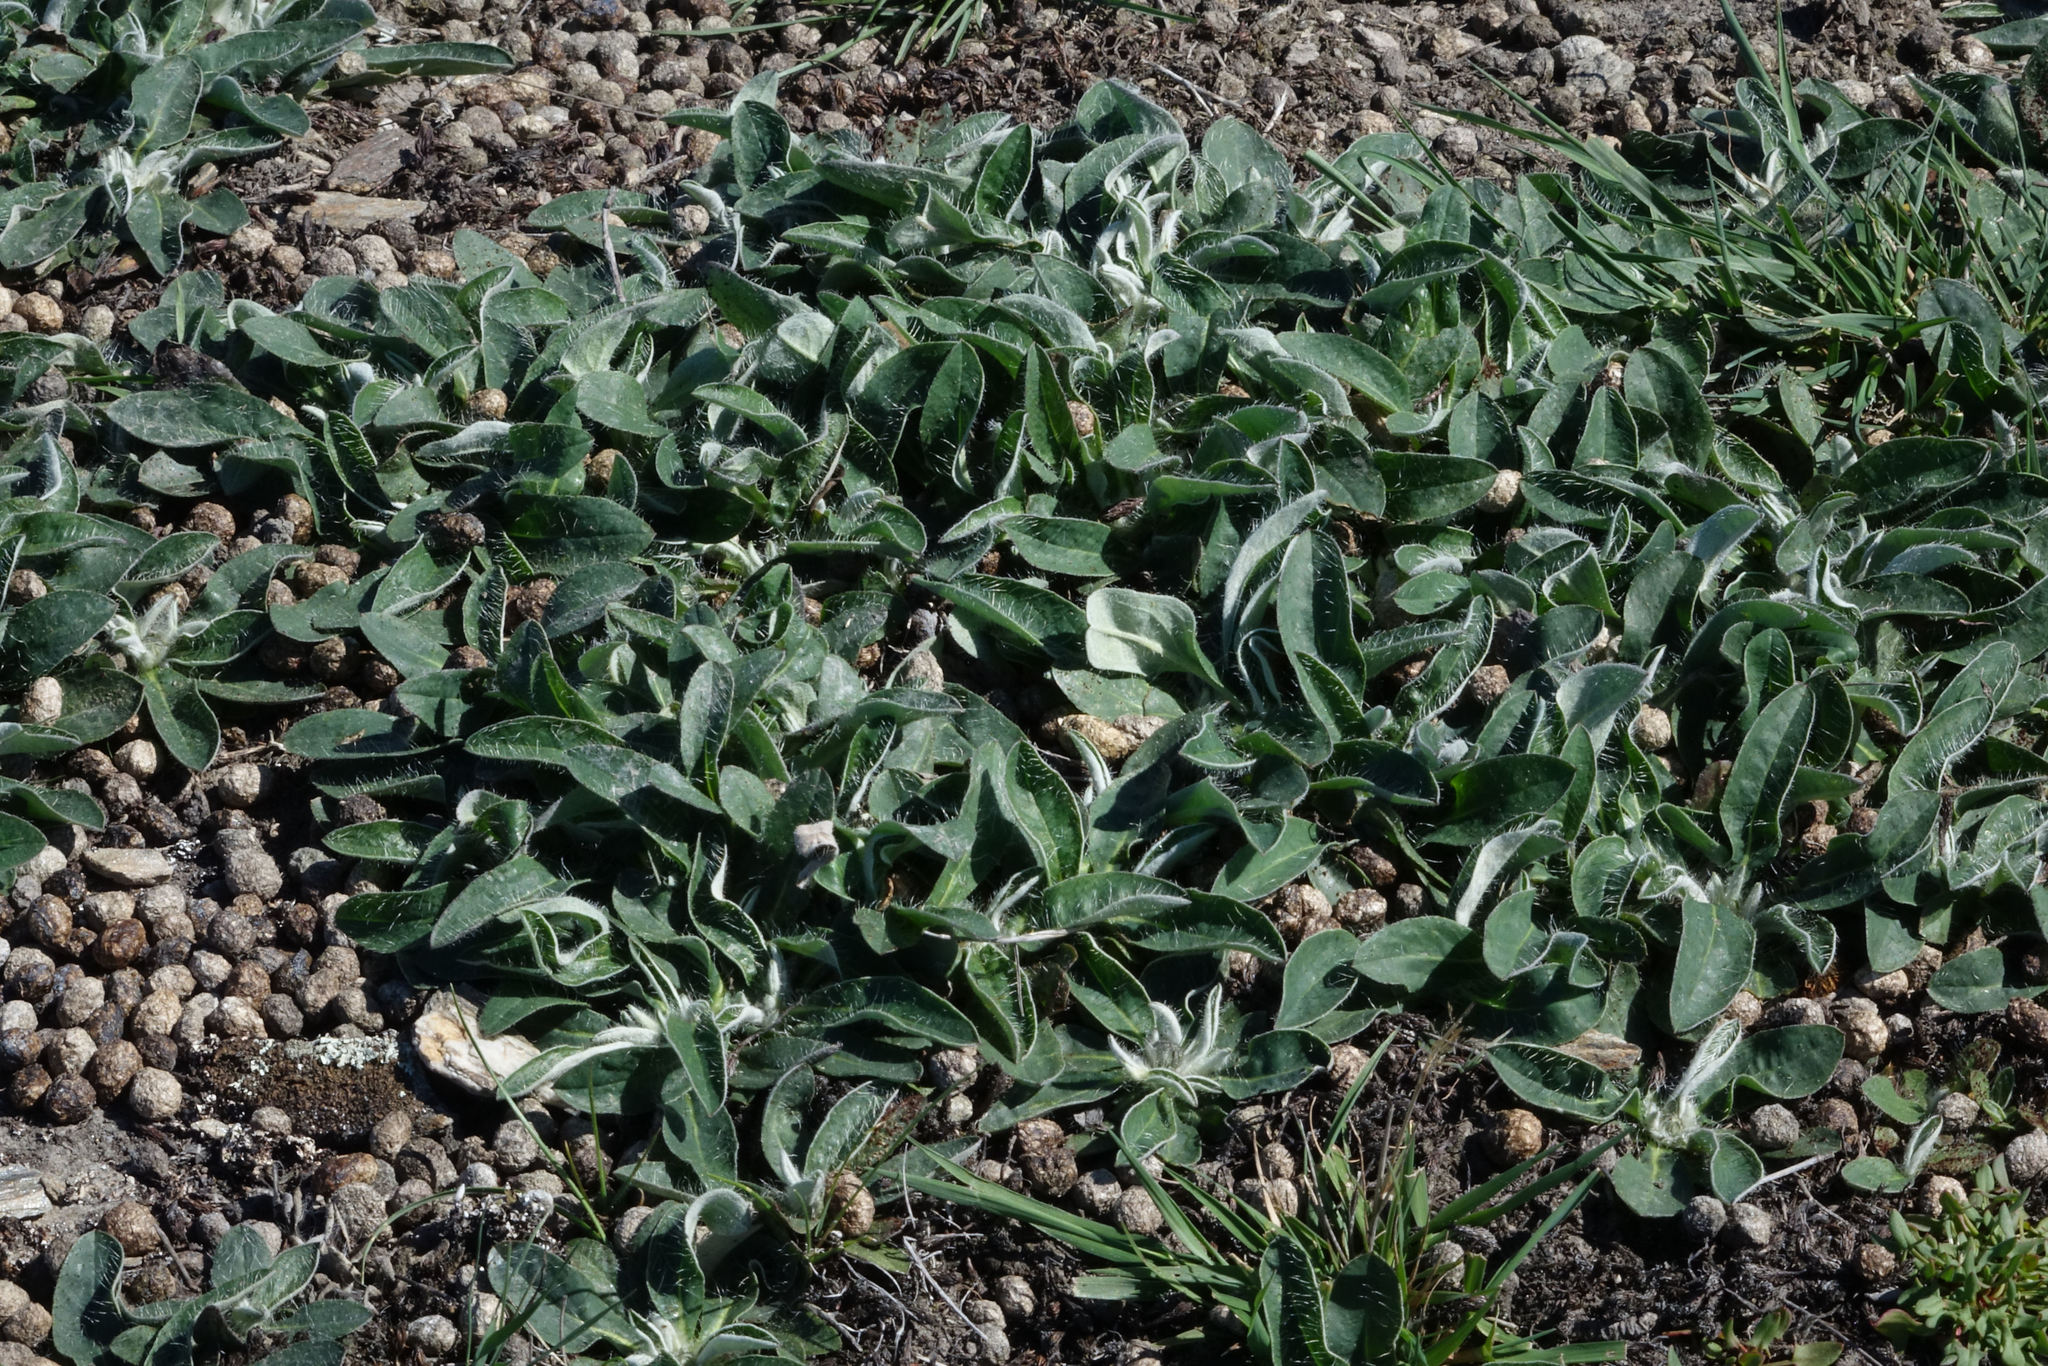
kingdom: Plantae
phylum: Tracheophyta
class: Magnoliopsida
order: Asterales
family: Asteraceae
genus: Pilosella
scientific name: Pilosella officinarum
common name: Mouse-ear hawkweed
